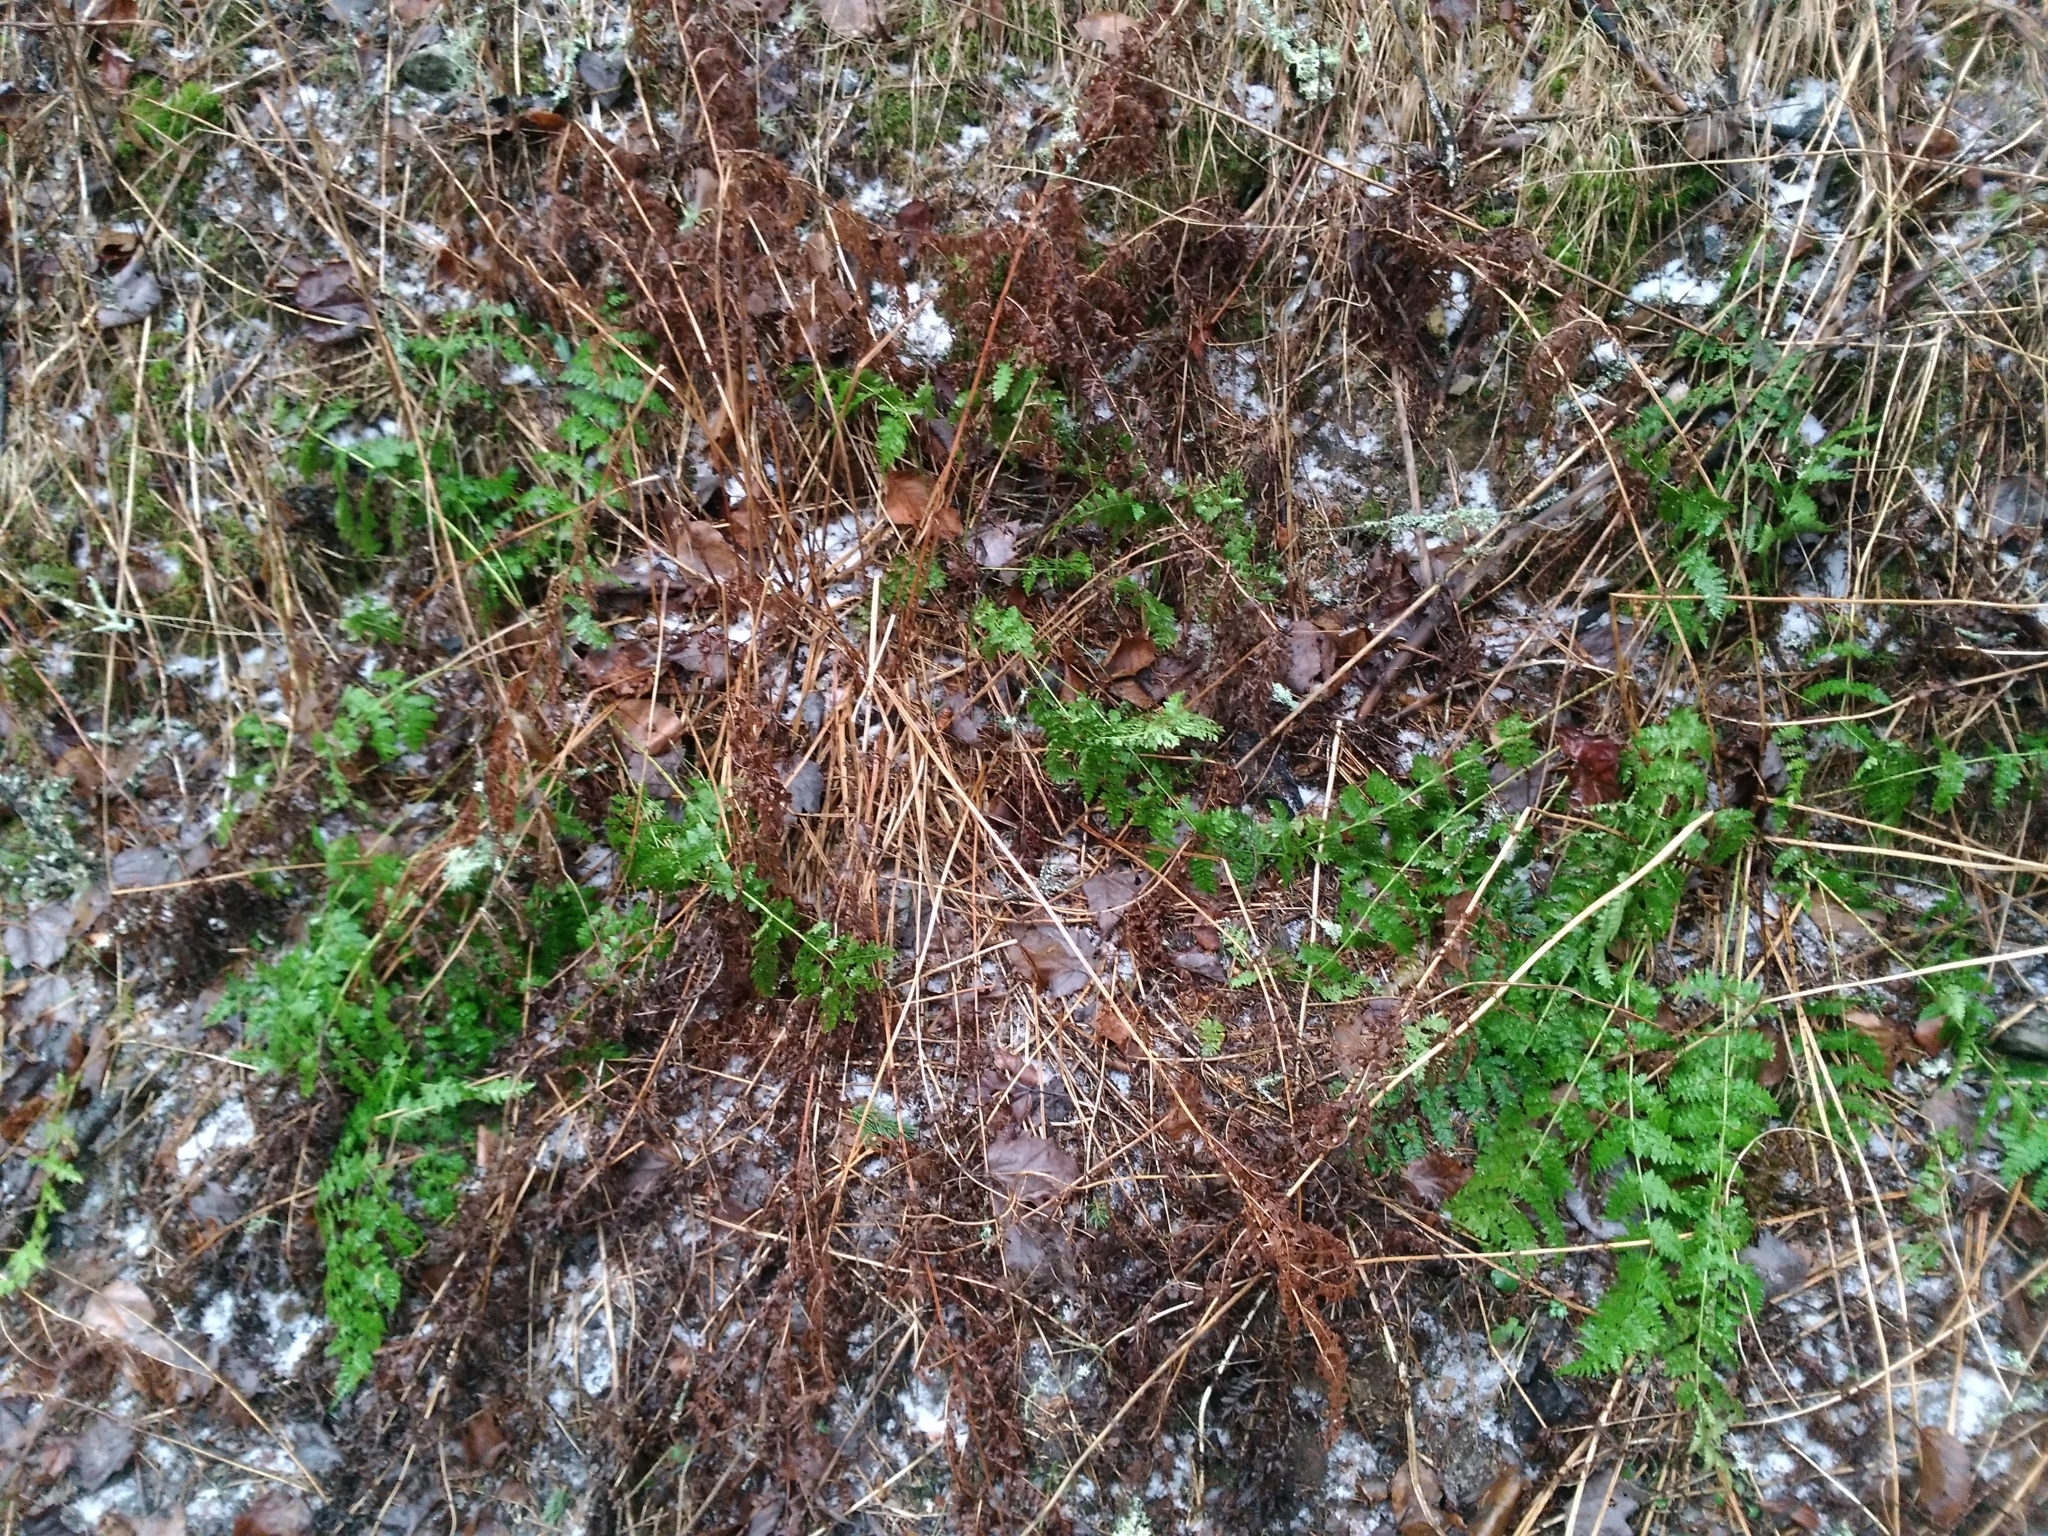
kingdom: Plantae
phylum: Tracheophyta
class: Polypodiopsida
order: Polypodiales
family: Dryopteridaceae
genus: Dryopteris
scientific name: Dryopteris intermedia
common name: Evergreen wood fern
